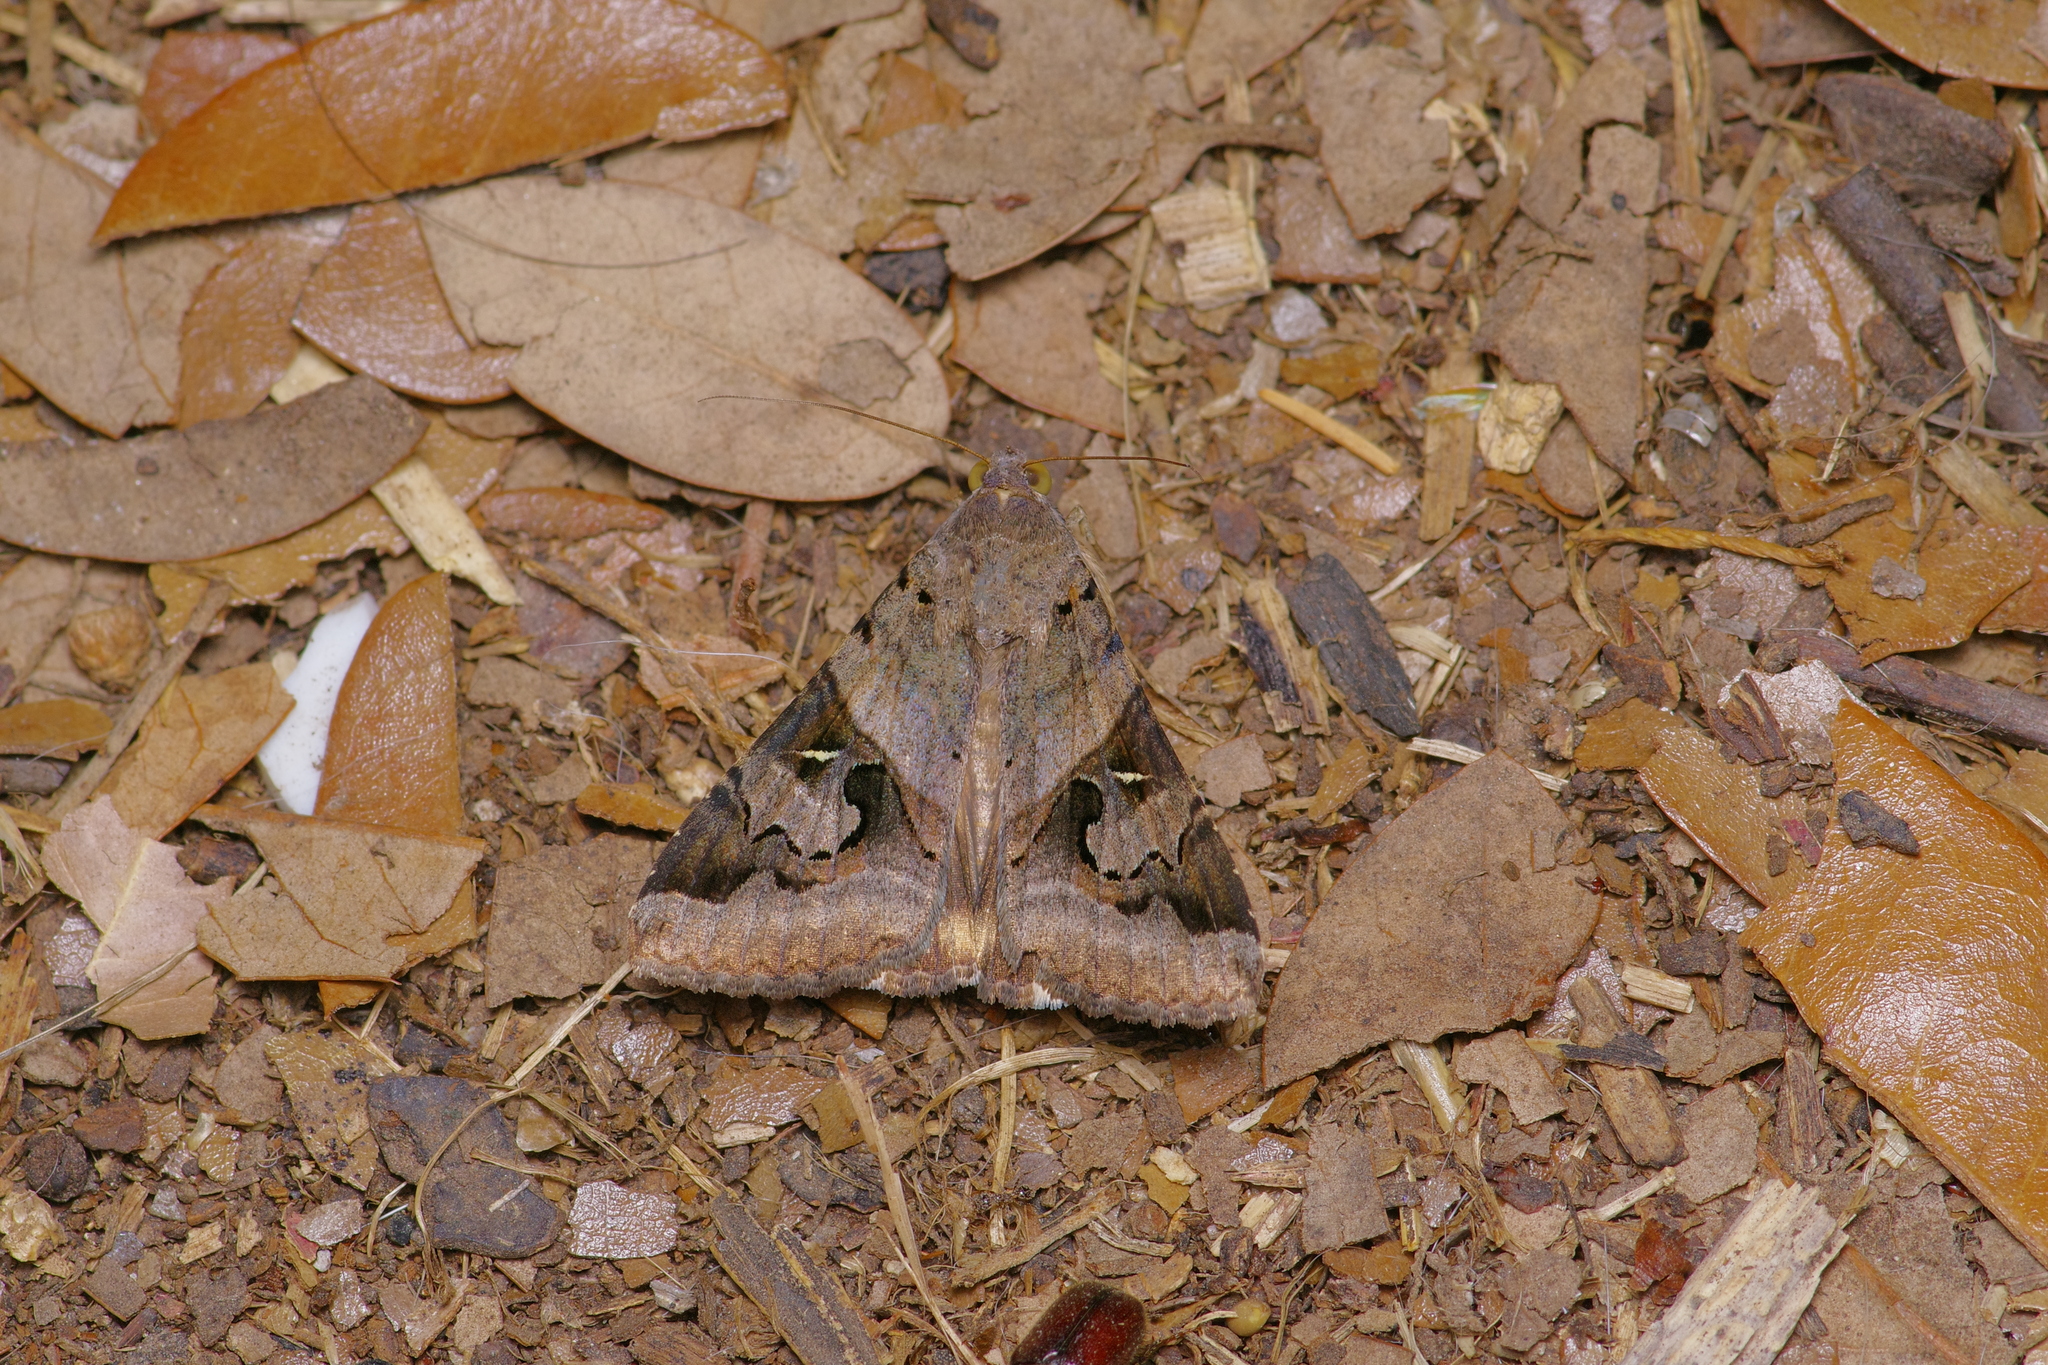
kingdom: Animalia
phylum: Arthropoda
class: Insecta
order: Lepidoptera
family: Erebidae
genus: Melipotis
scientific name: Melipotis indomita
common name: Moth
